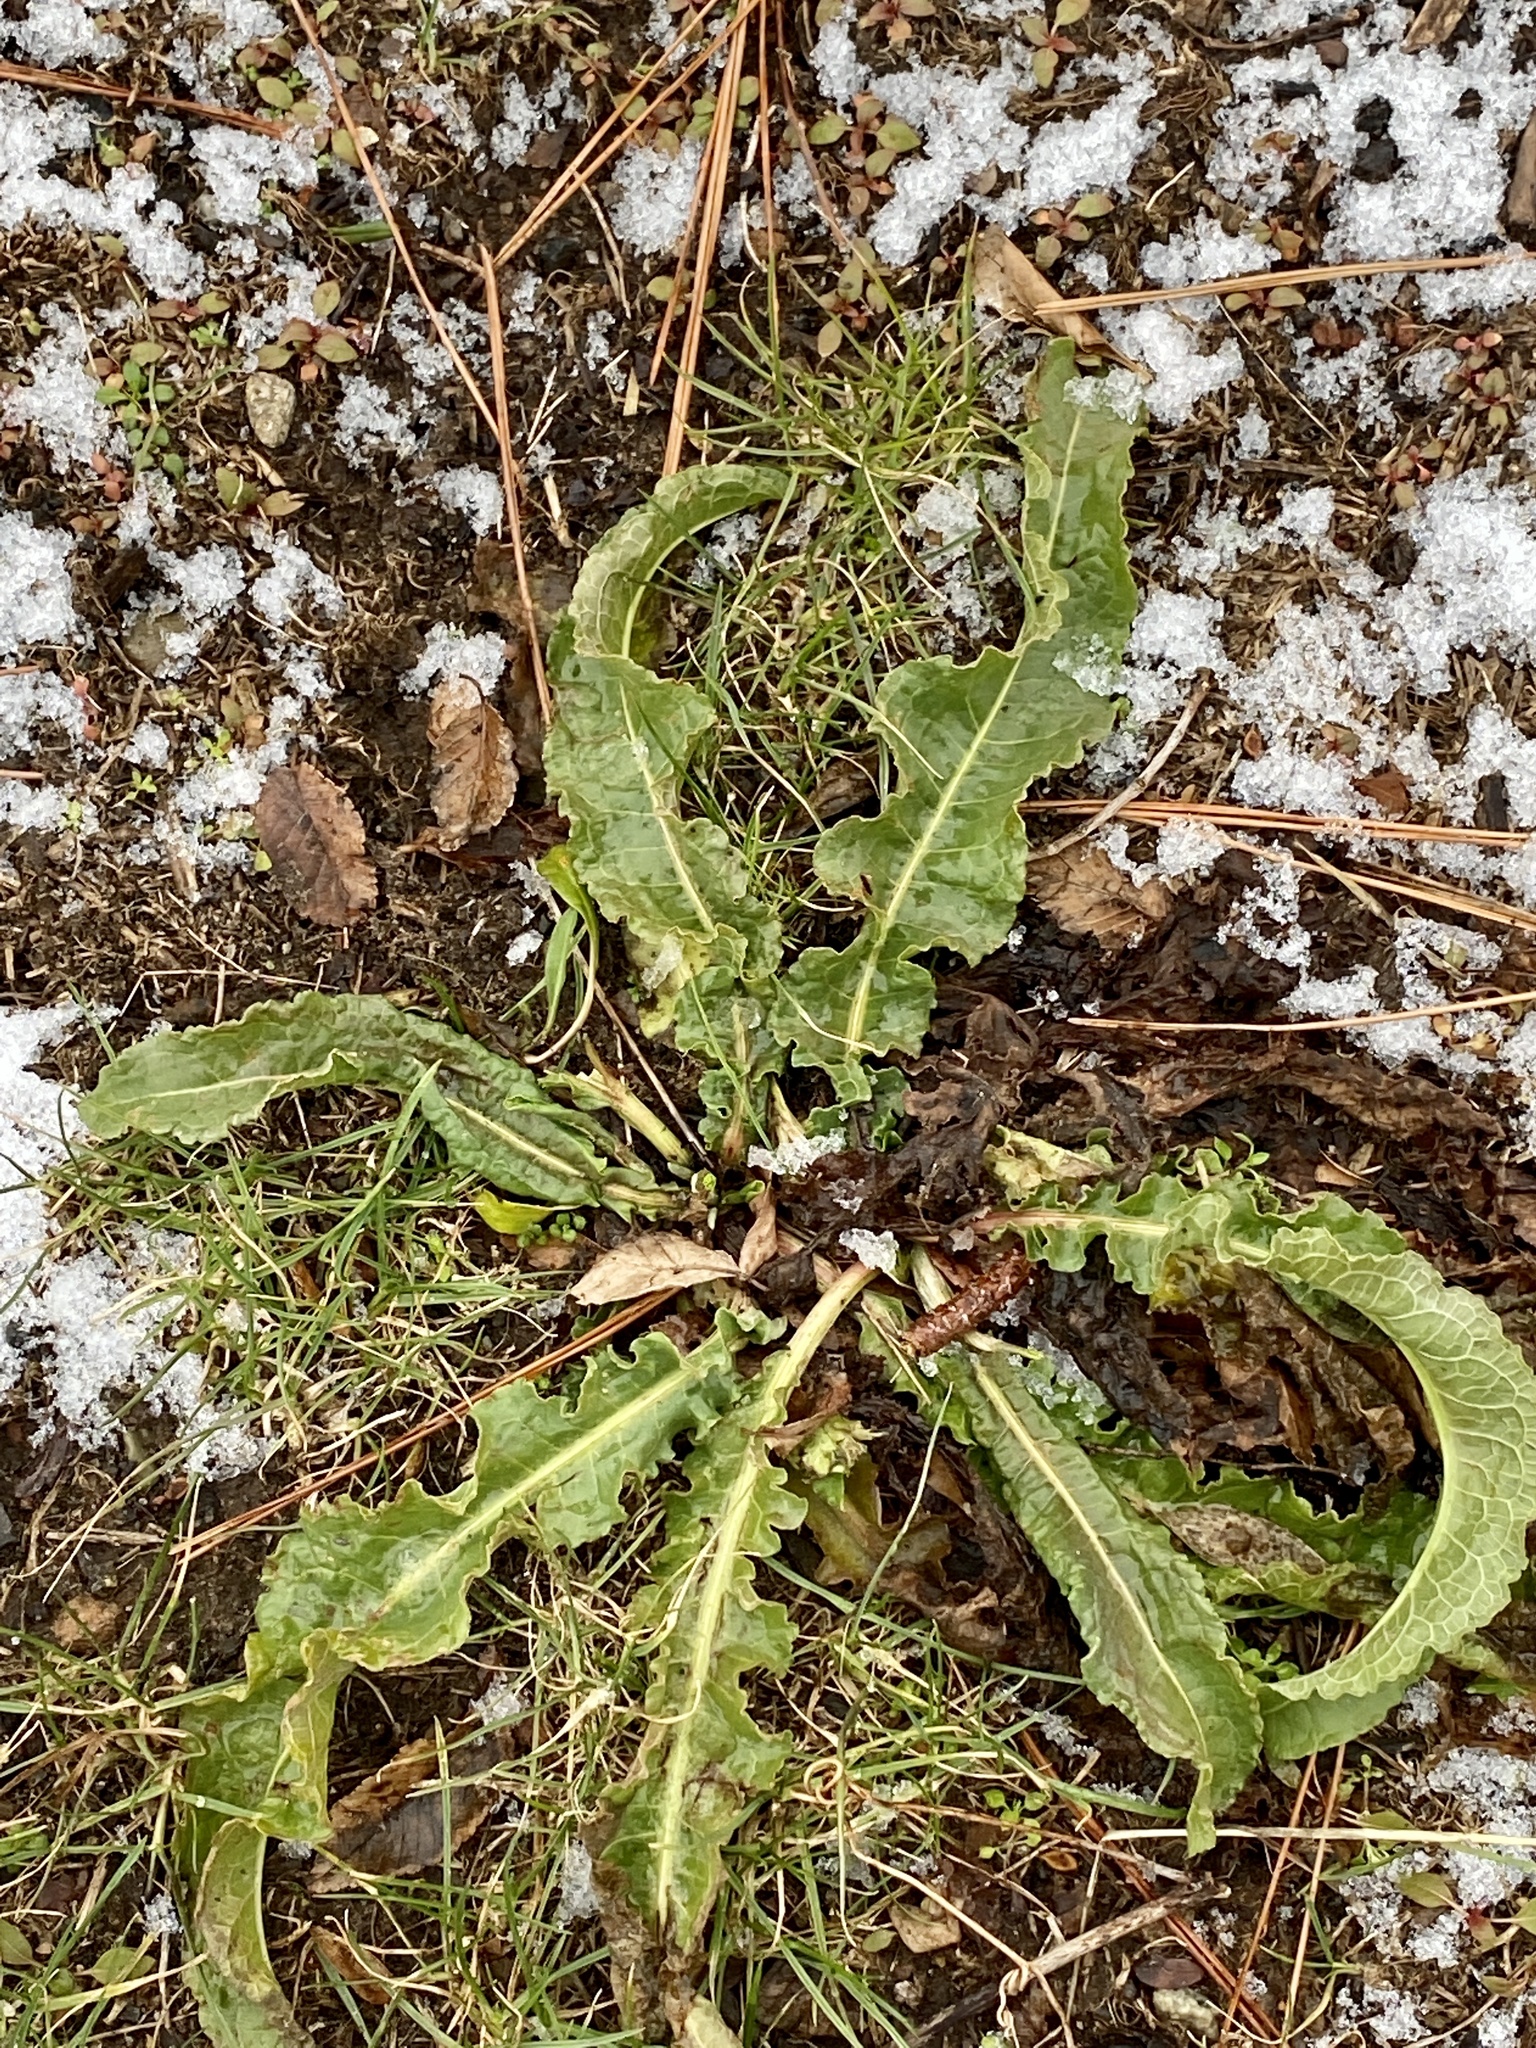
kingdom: Plantae
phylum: Tracheophyta
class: Magnoliopsida
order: Caryophyllales
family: Polygonaceae
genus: Rumex
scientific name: Rumex crispus
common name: Curled dock
